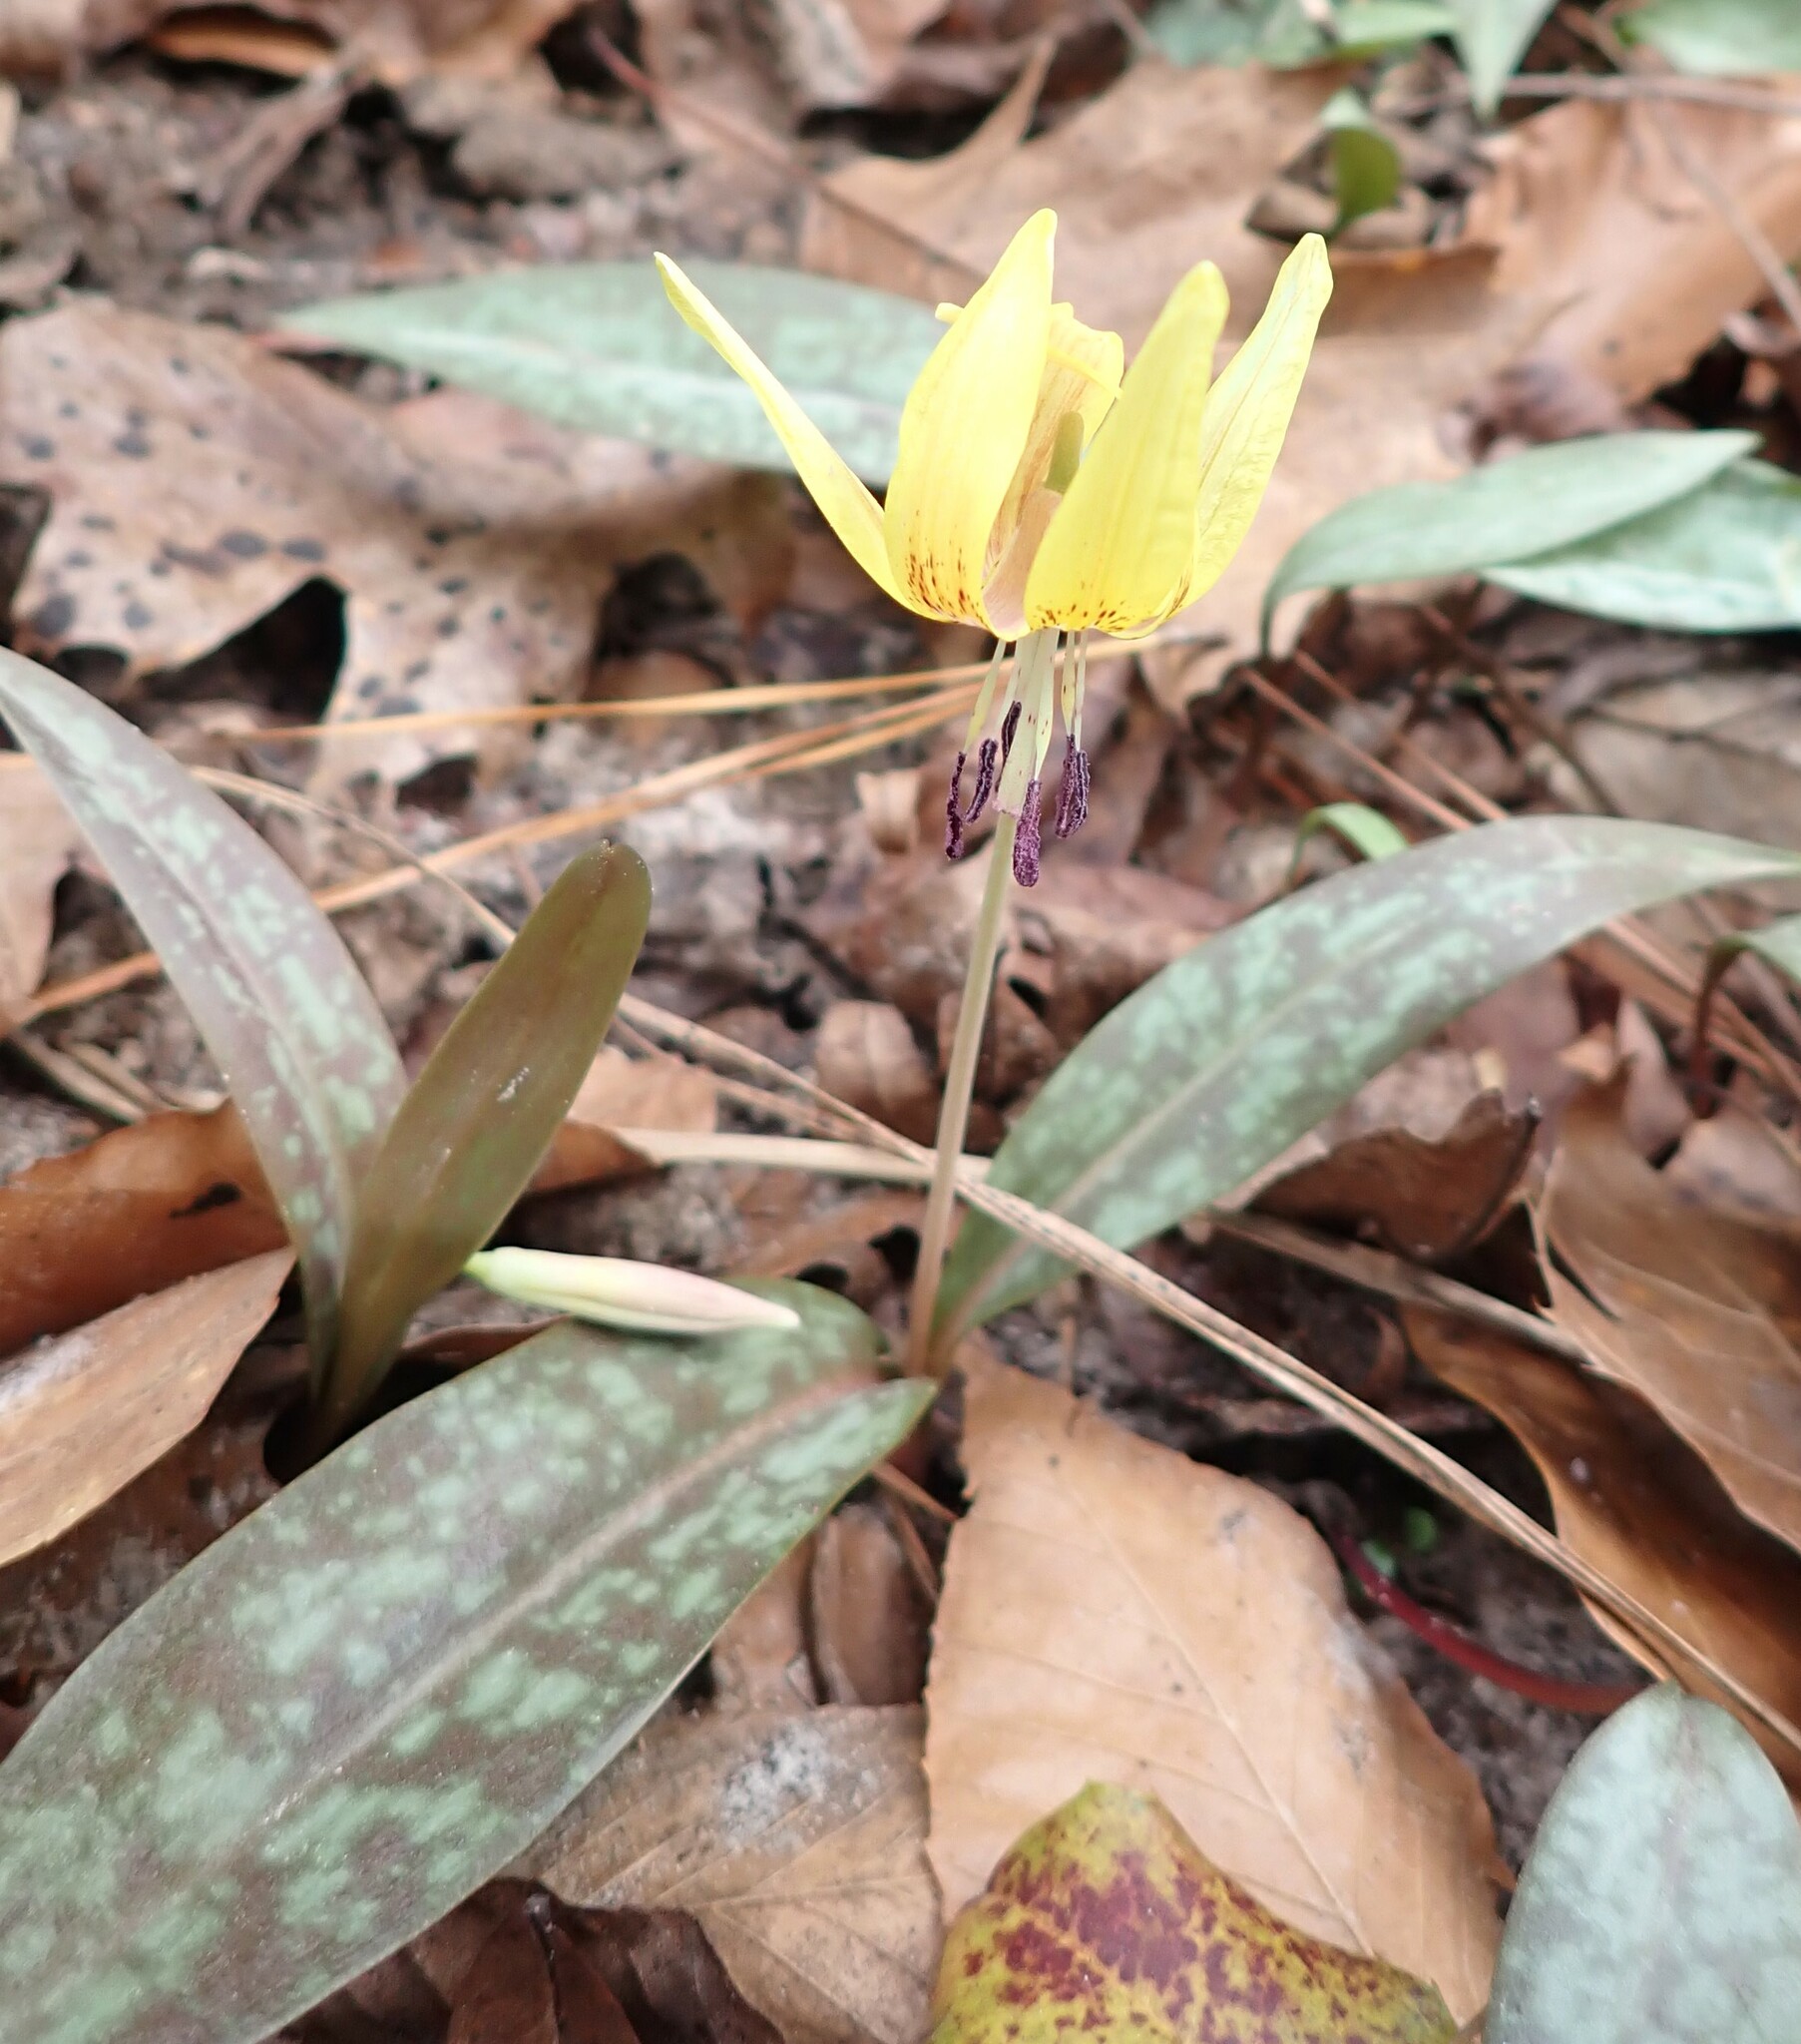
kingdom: Plantae
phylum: Tracheophyta
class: Liliopsida
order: Liliales
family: Liliaceae
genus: Erythronium
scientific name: Erythronium umbilicatum
